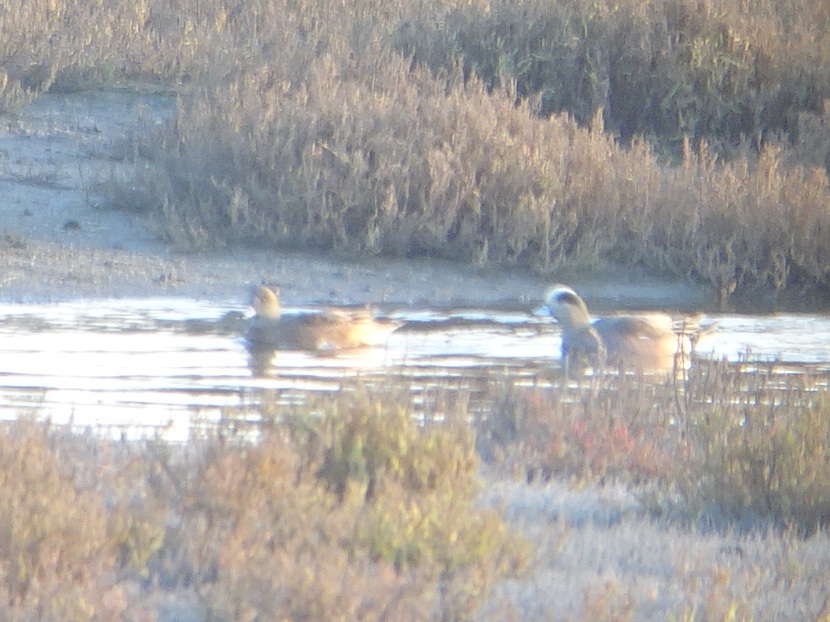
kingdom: Animalia
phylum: Chordata
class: Aves
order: Anseriformes
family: Anatidae
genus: Mareca
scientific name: Mareca americana
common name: American wigeon
